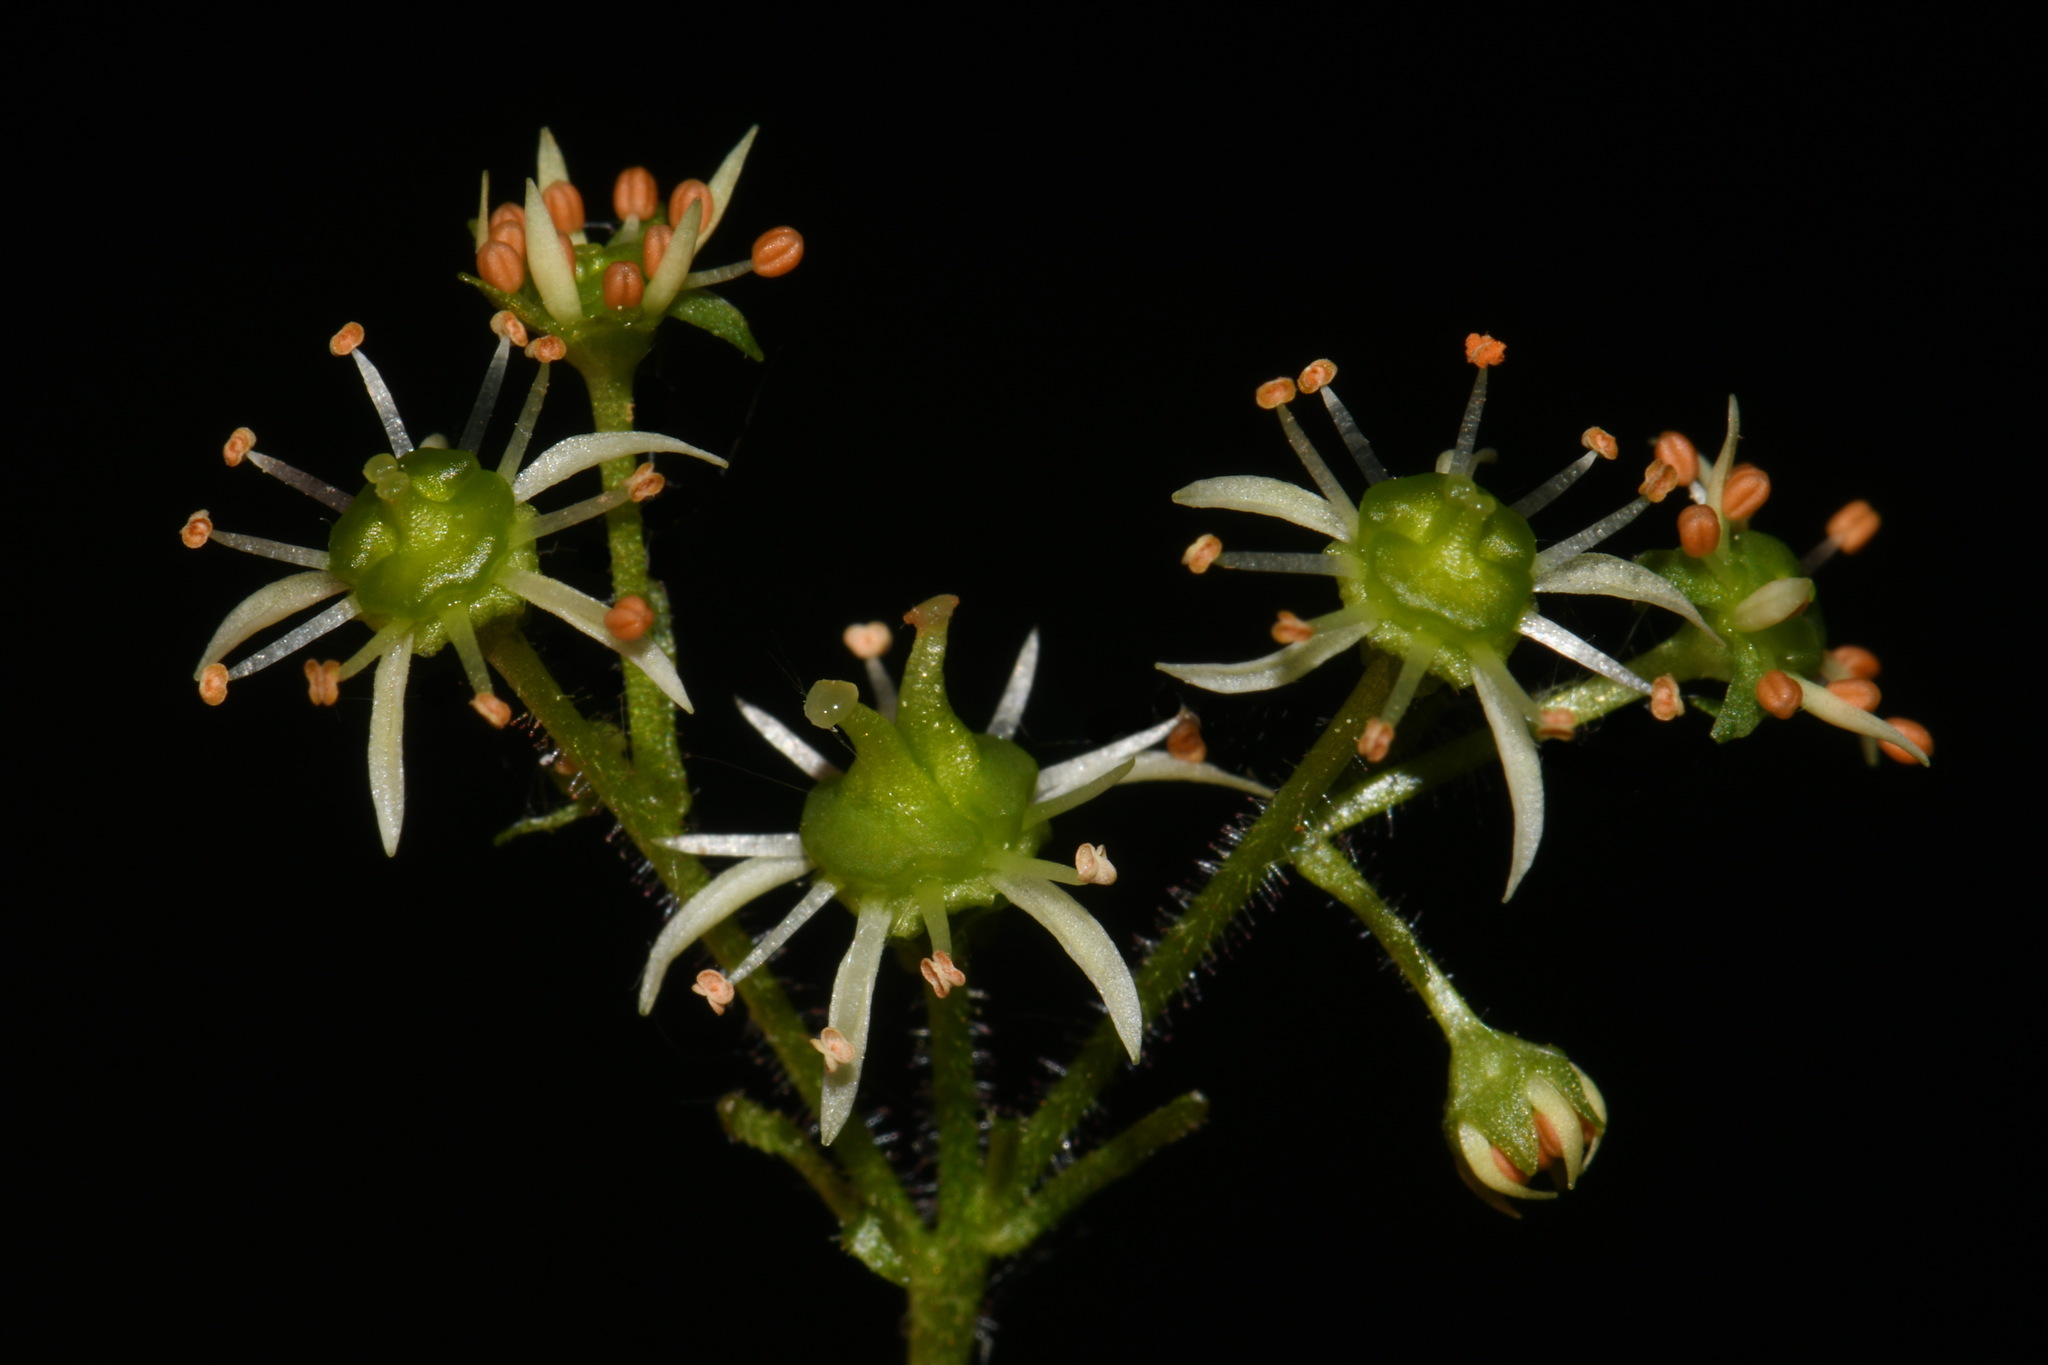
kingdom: Plantae
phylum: Tracheophyta
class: Magnoliopsida
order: Saxifragales
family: Saxifragaceae
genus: Micranthes
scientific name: Micranthes pensylvanica
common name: Marsh saxifrage
